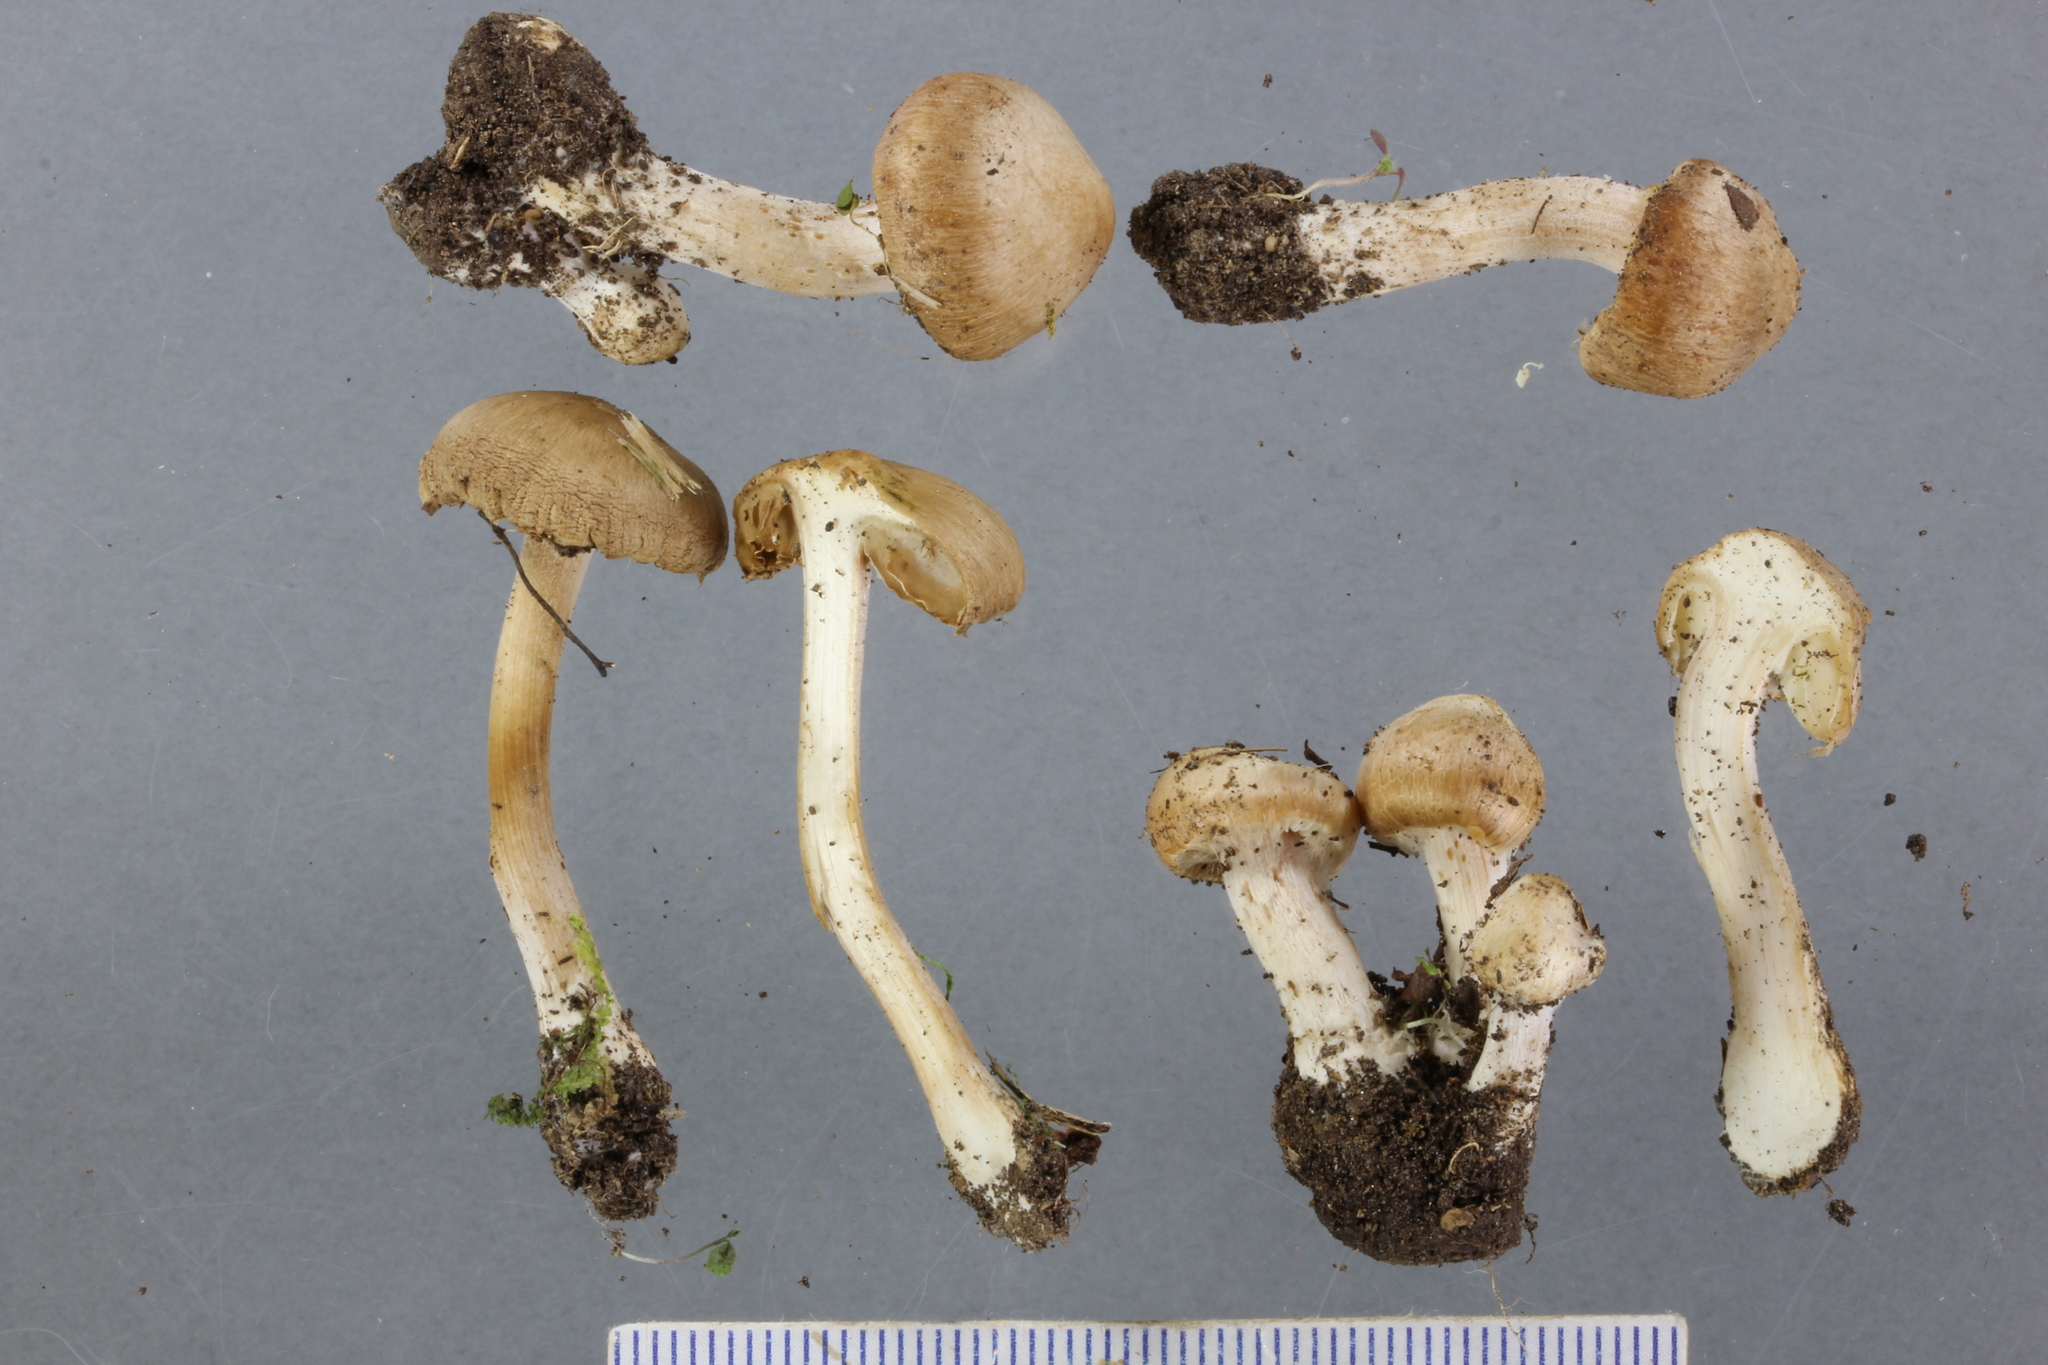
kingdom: Fungi
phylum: Basidiomycota
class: Agaricomycetes
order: Agaricales
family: Inocybaceae
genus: Inocybe
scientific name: Inocybe sindonia
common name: Beige fibrecap
